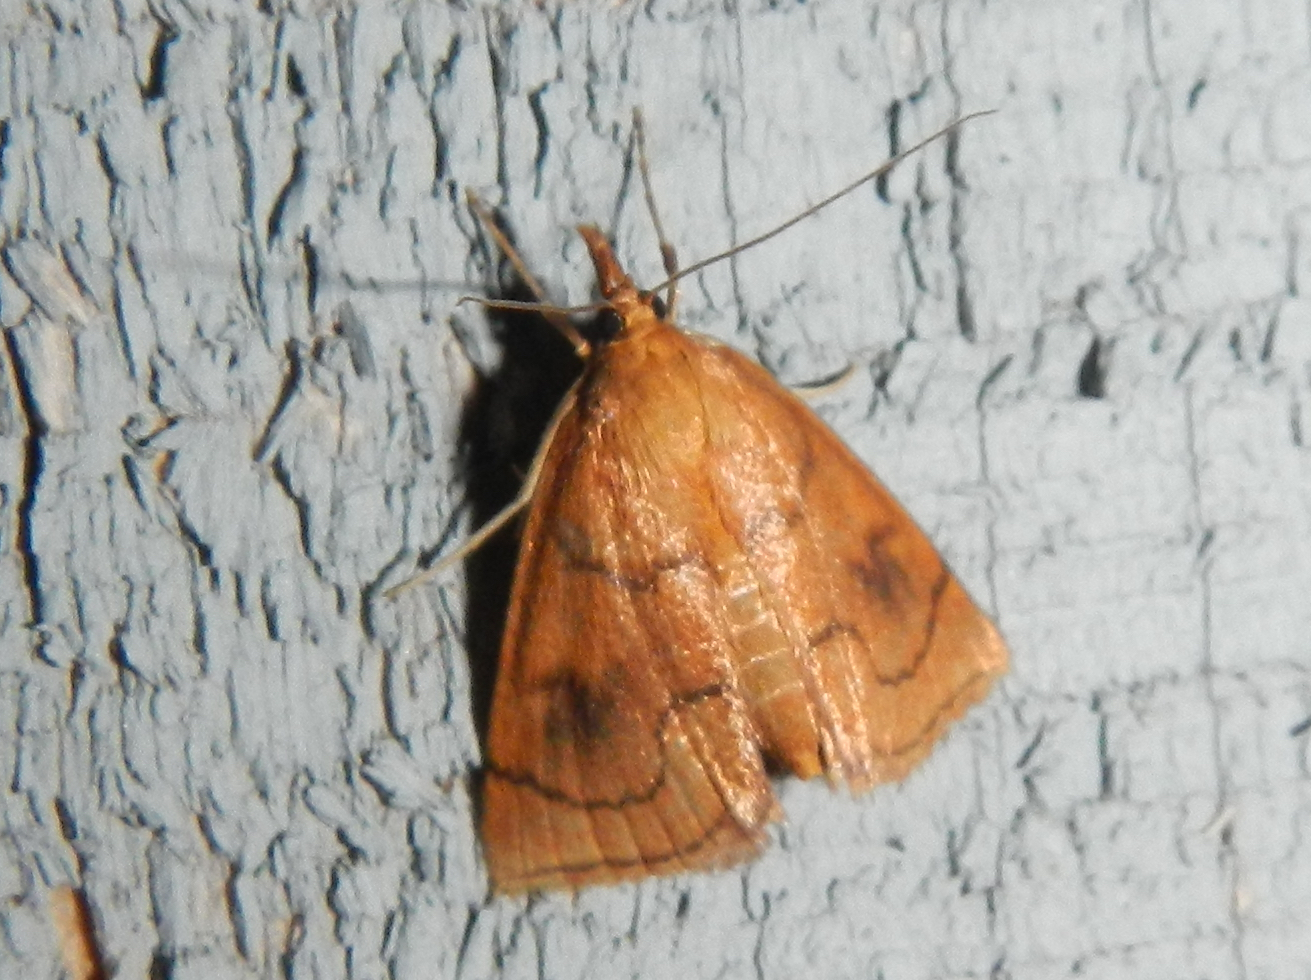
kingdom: Animalia
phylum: Arthropoda
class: Insecta
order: Lepidoptera
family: Crambidae
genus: Fumibotys
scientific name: Fumibotys fumalis
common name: Mint root borer moth
